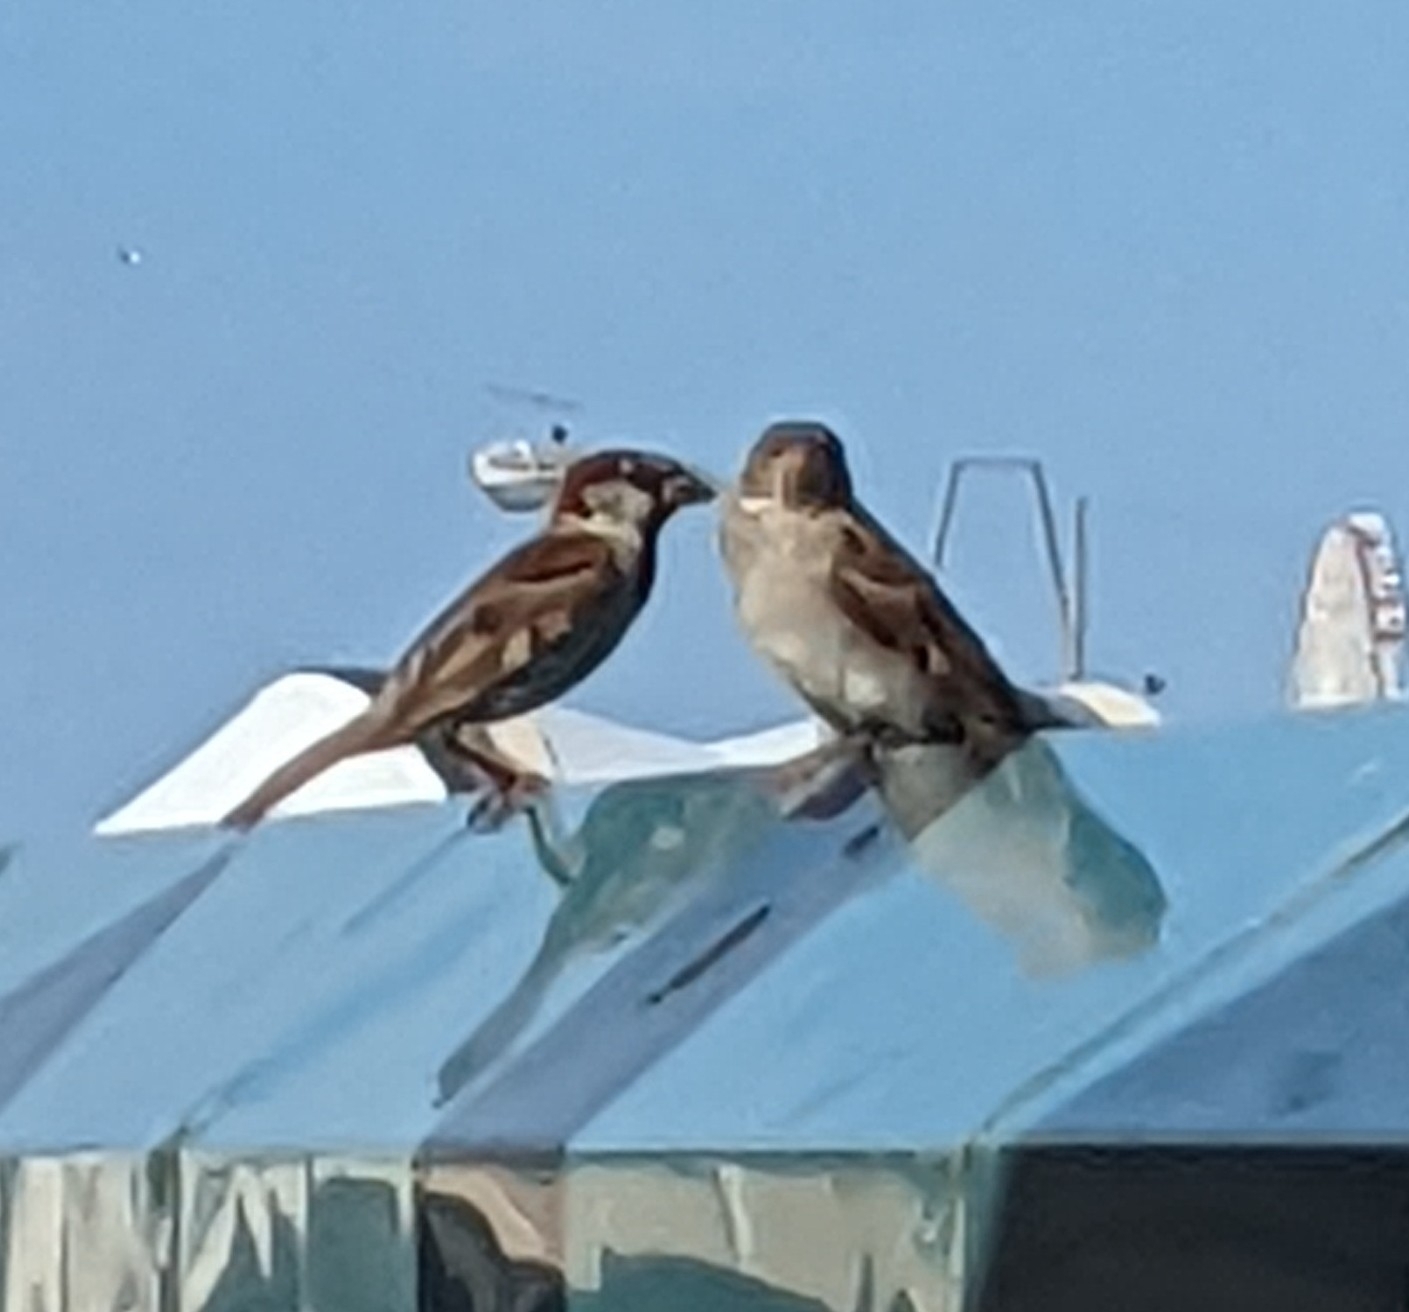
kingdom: Animalia
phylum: Chordata
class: Aves
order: Passeriformes
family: Passeridae
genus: Passer
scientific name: Passer domesticus
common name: House sparrow
